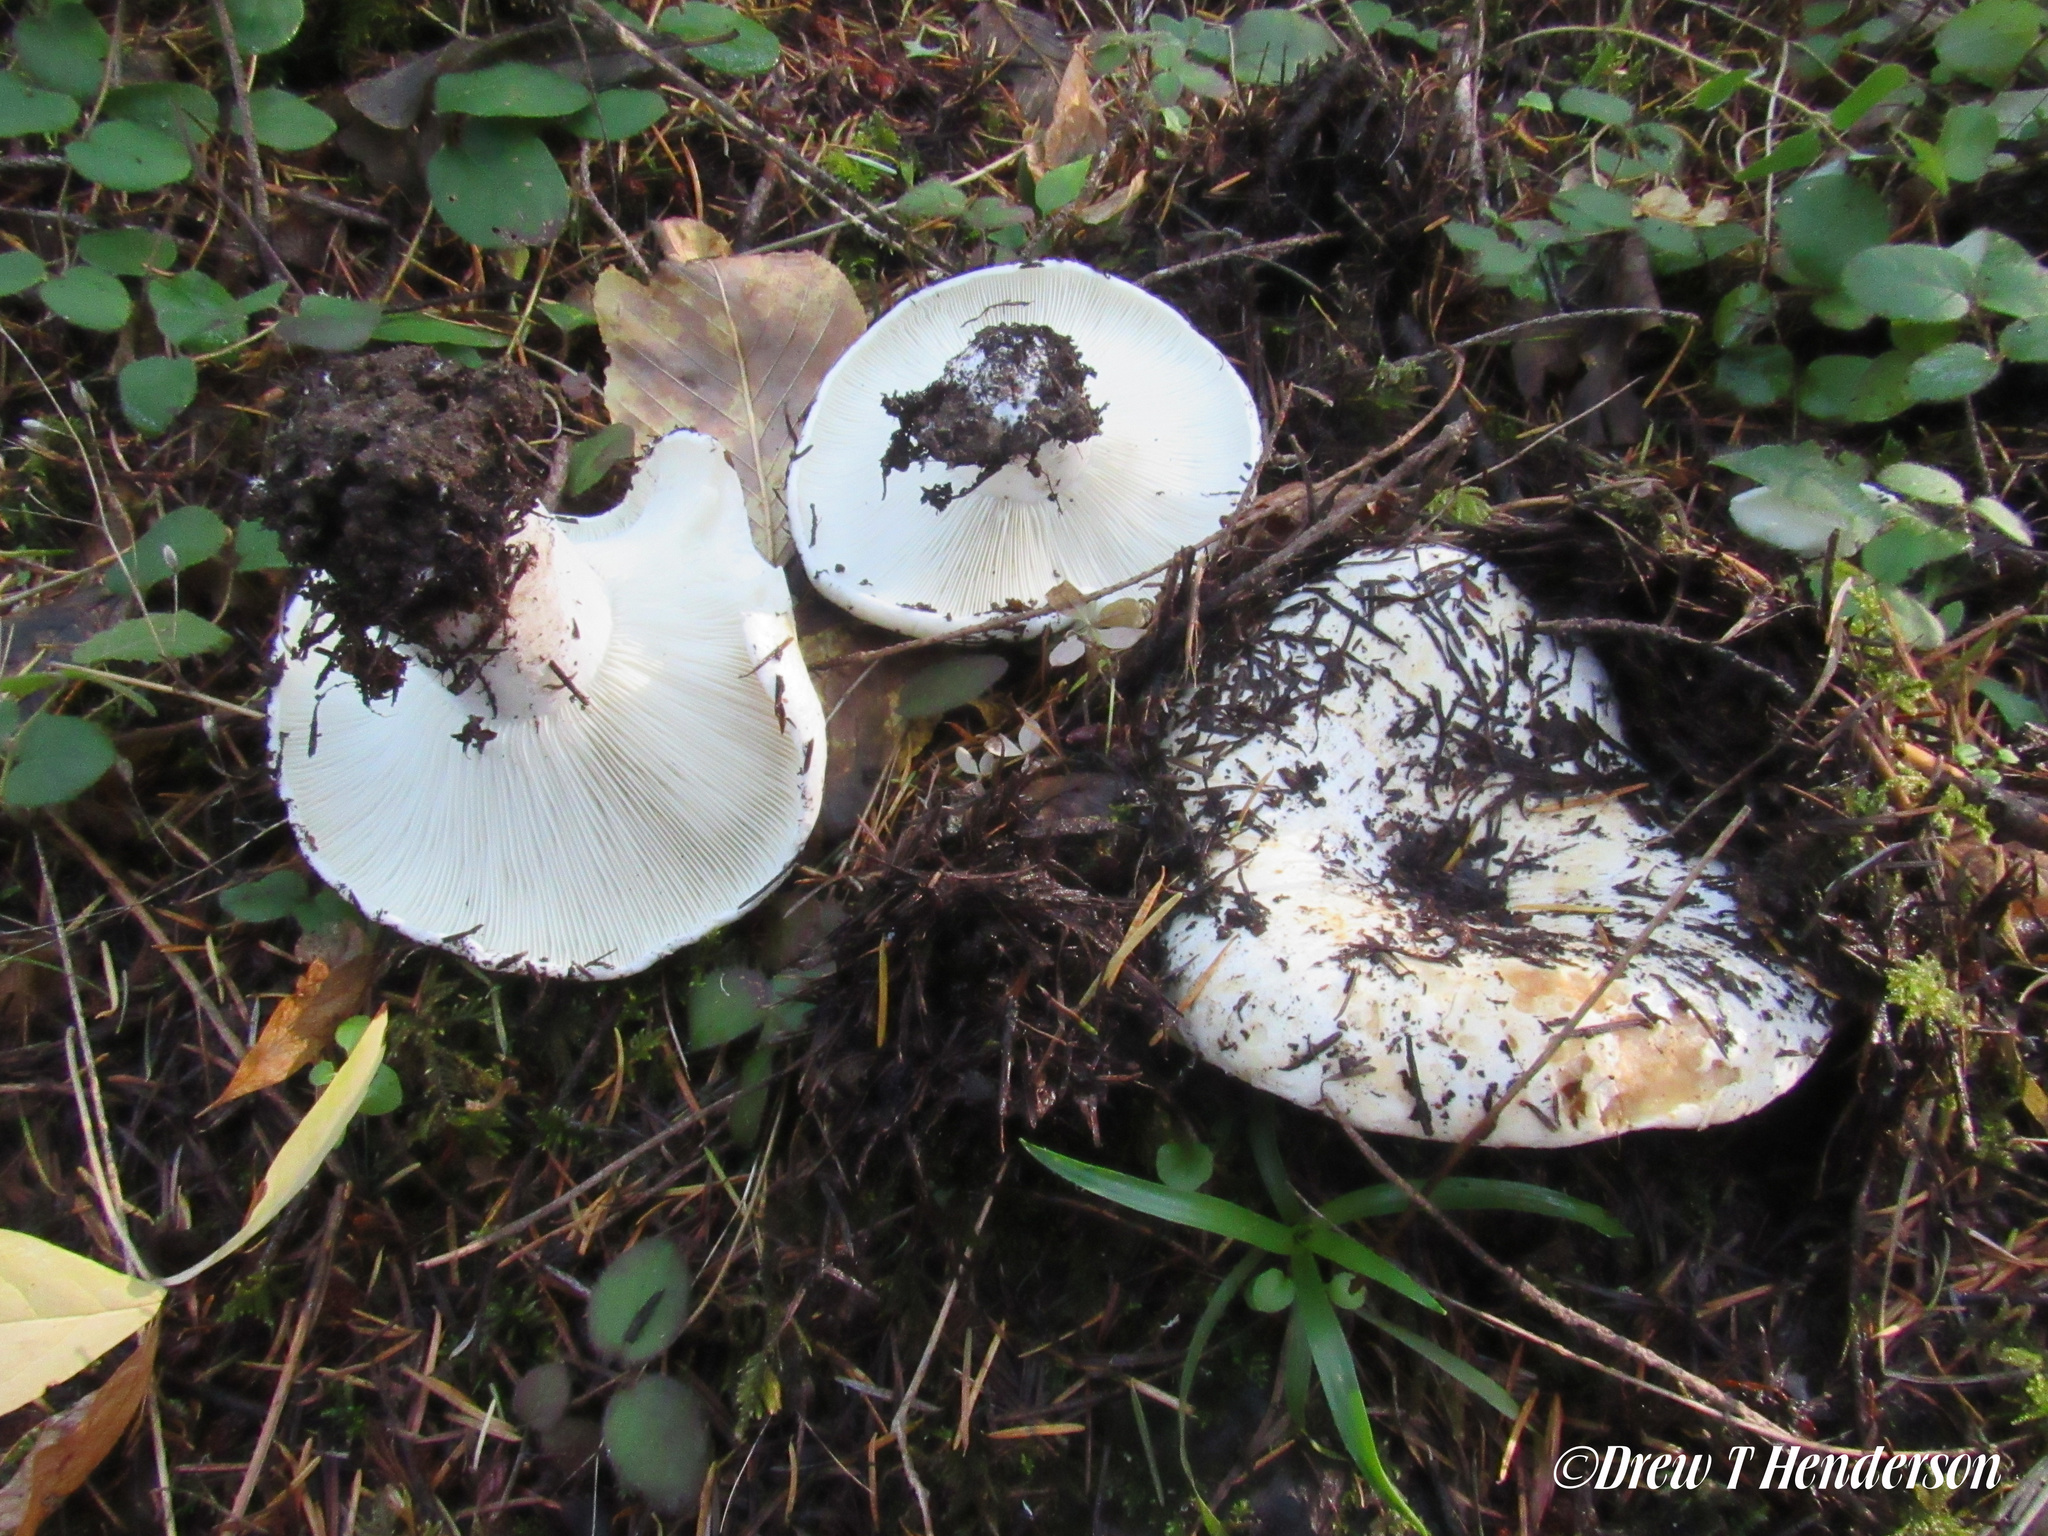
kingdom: Fungi
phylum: Basidiomycota
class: Agaricomycetes
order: Russulales
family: Russulaceae
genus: Russula
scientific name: Russula brevipes
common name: Short-stemmed russula
